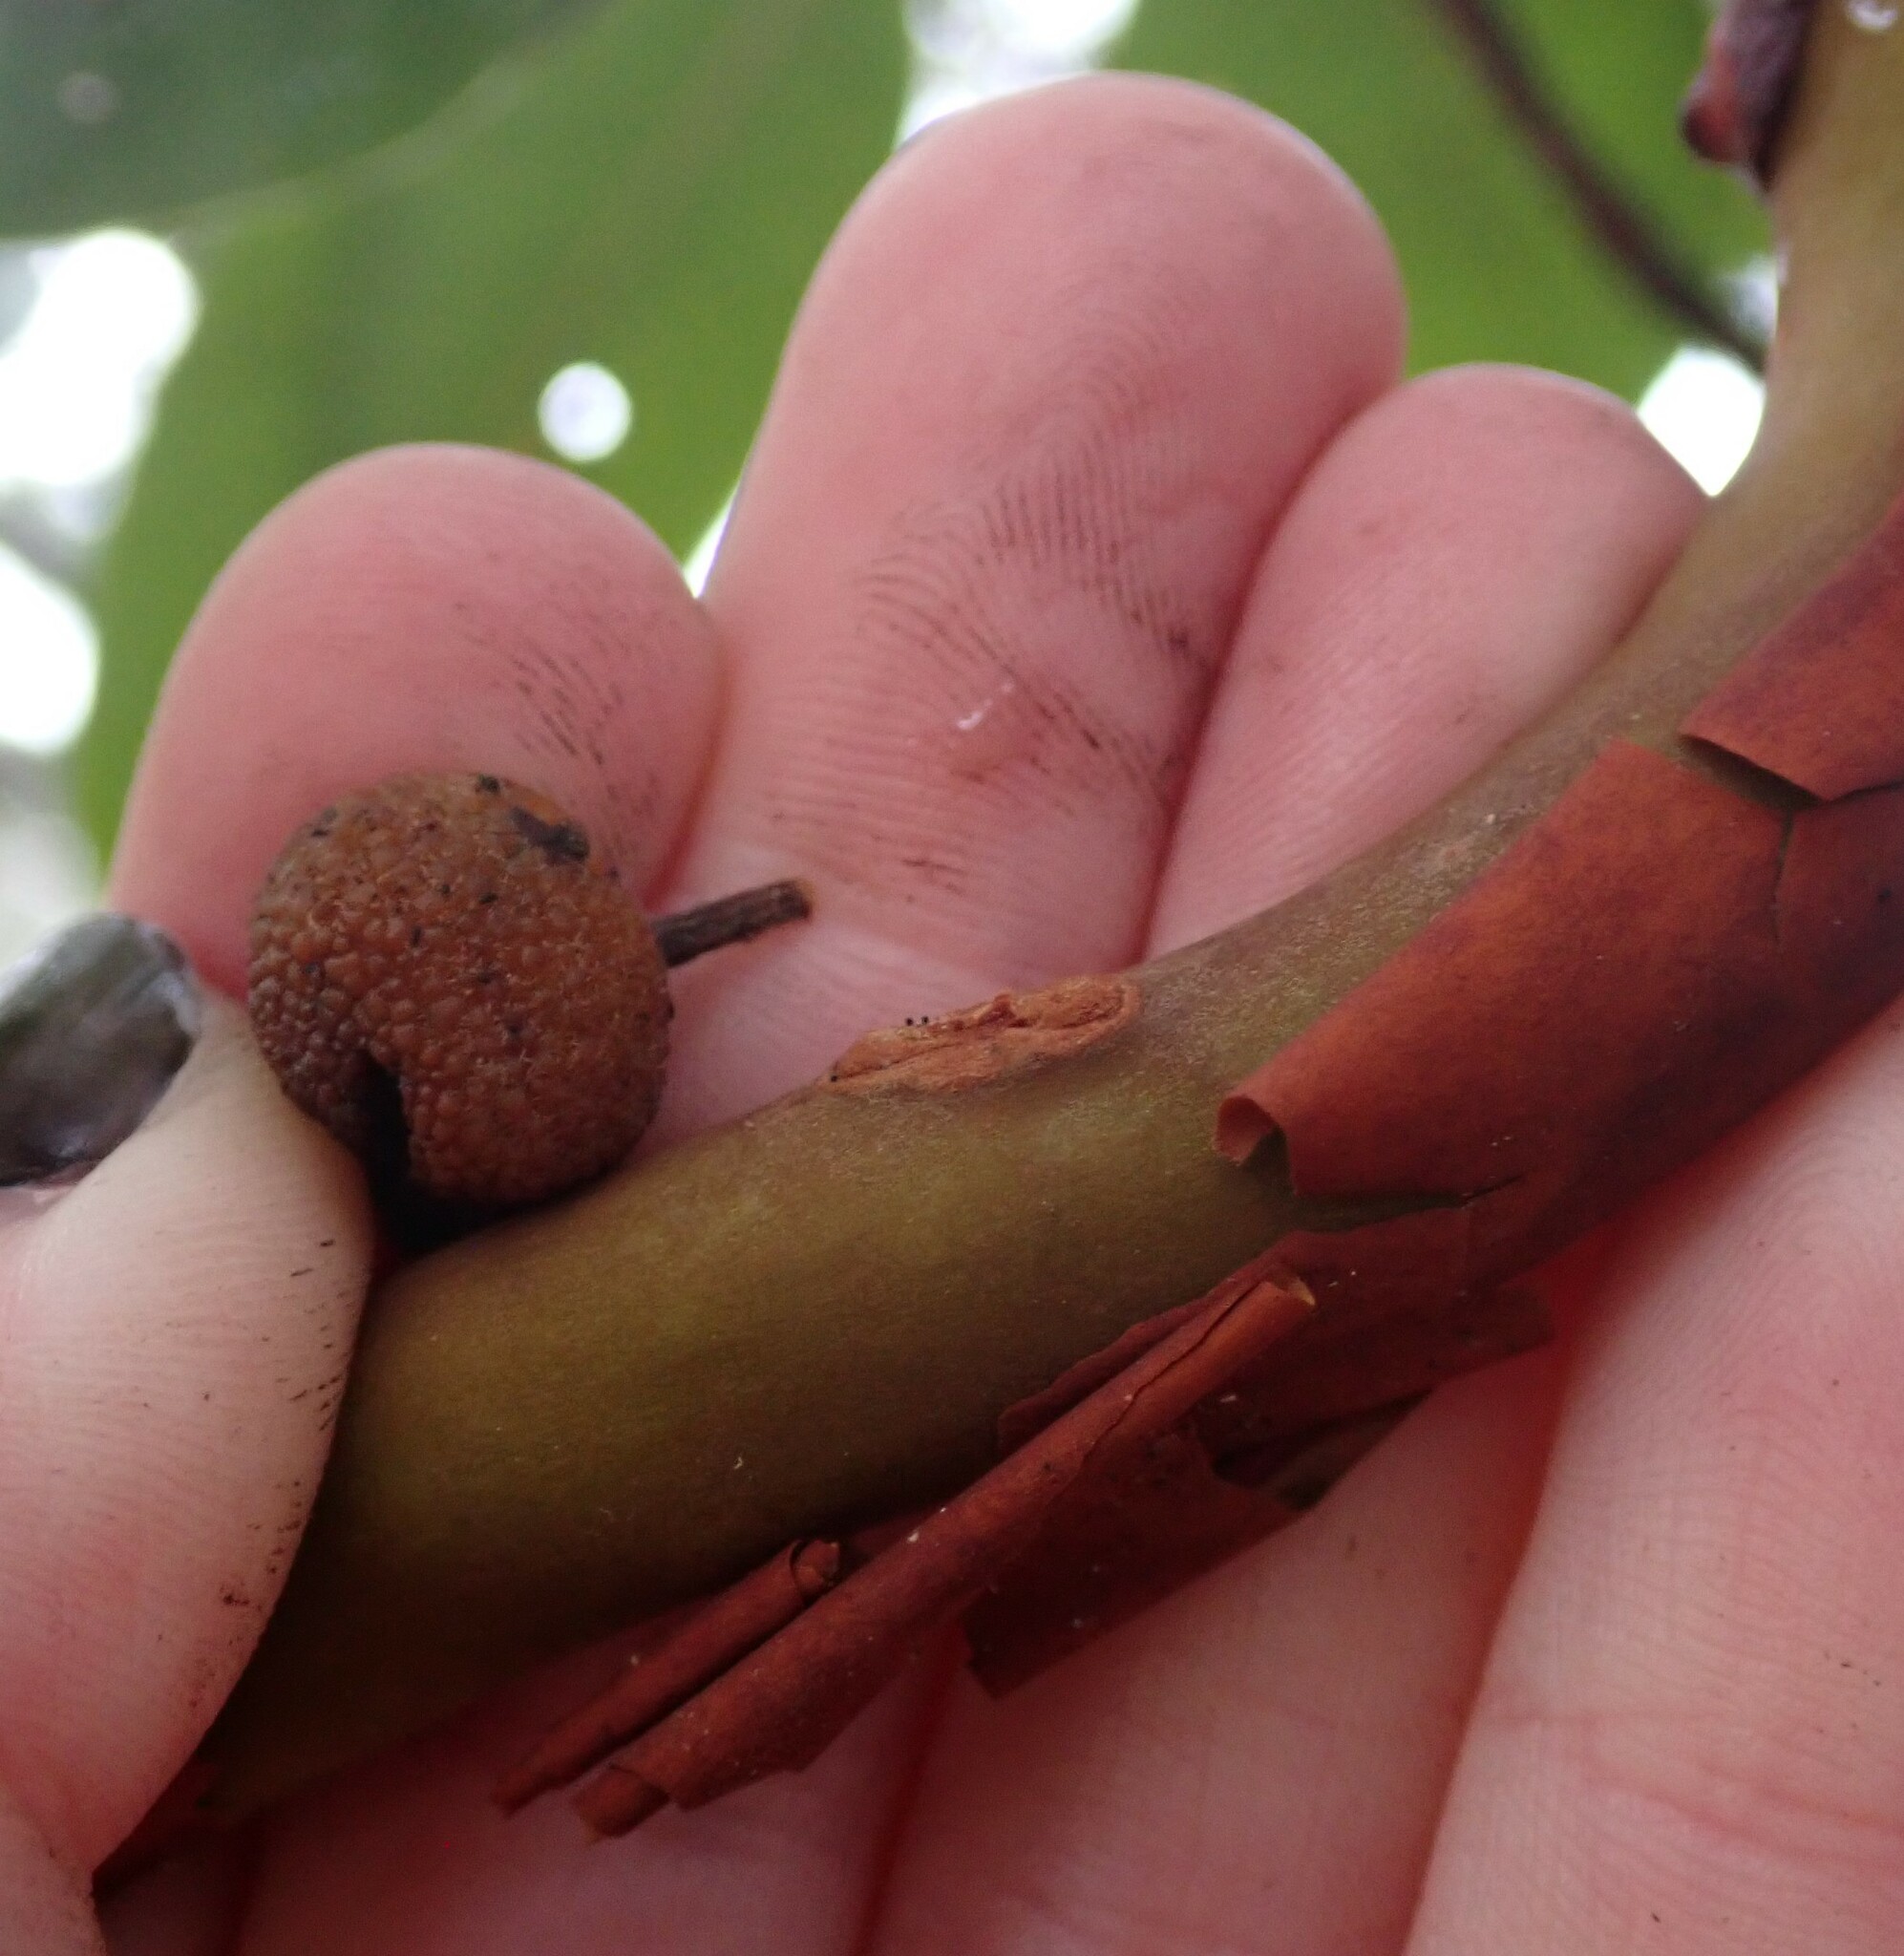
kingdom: Plantae
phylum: Tracheophyta
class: Magnoliopsida
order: Ericales
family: Ericaceae
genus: Arbutus
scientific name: Arbutus menziesii
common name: Pacific madrone
